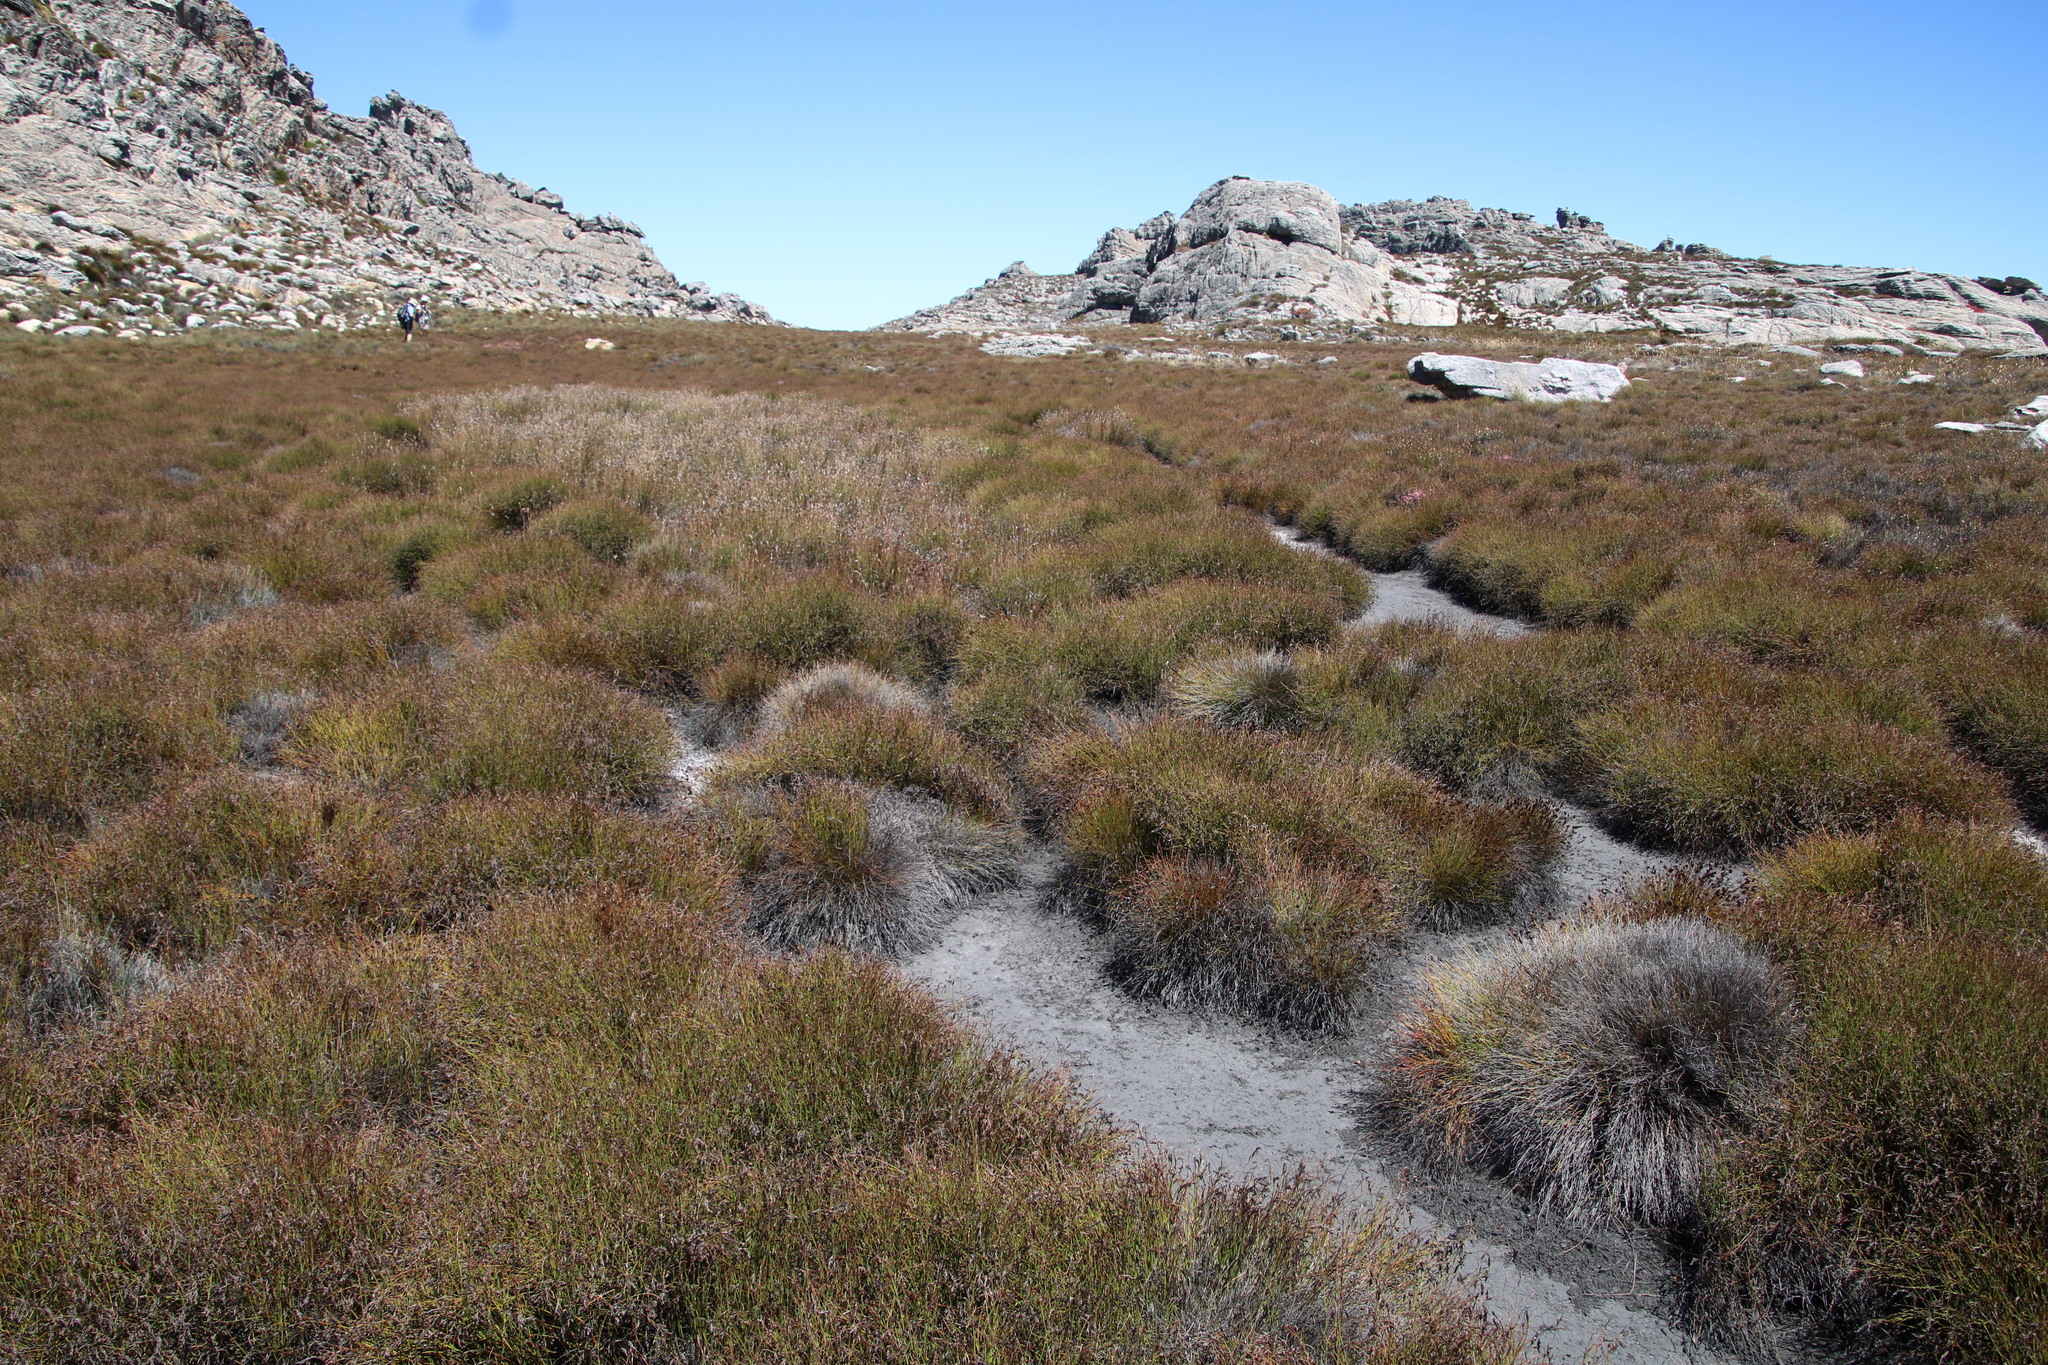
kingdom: Plantae
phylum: Tracheophyta
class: Liliopsida
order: Poales
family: Restionaceae
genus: Restio
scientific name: Restio nanus
